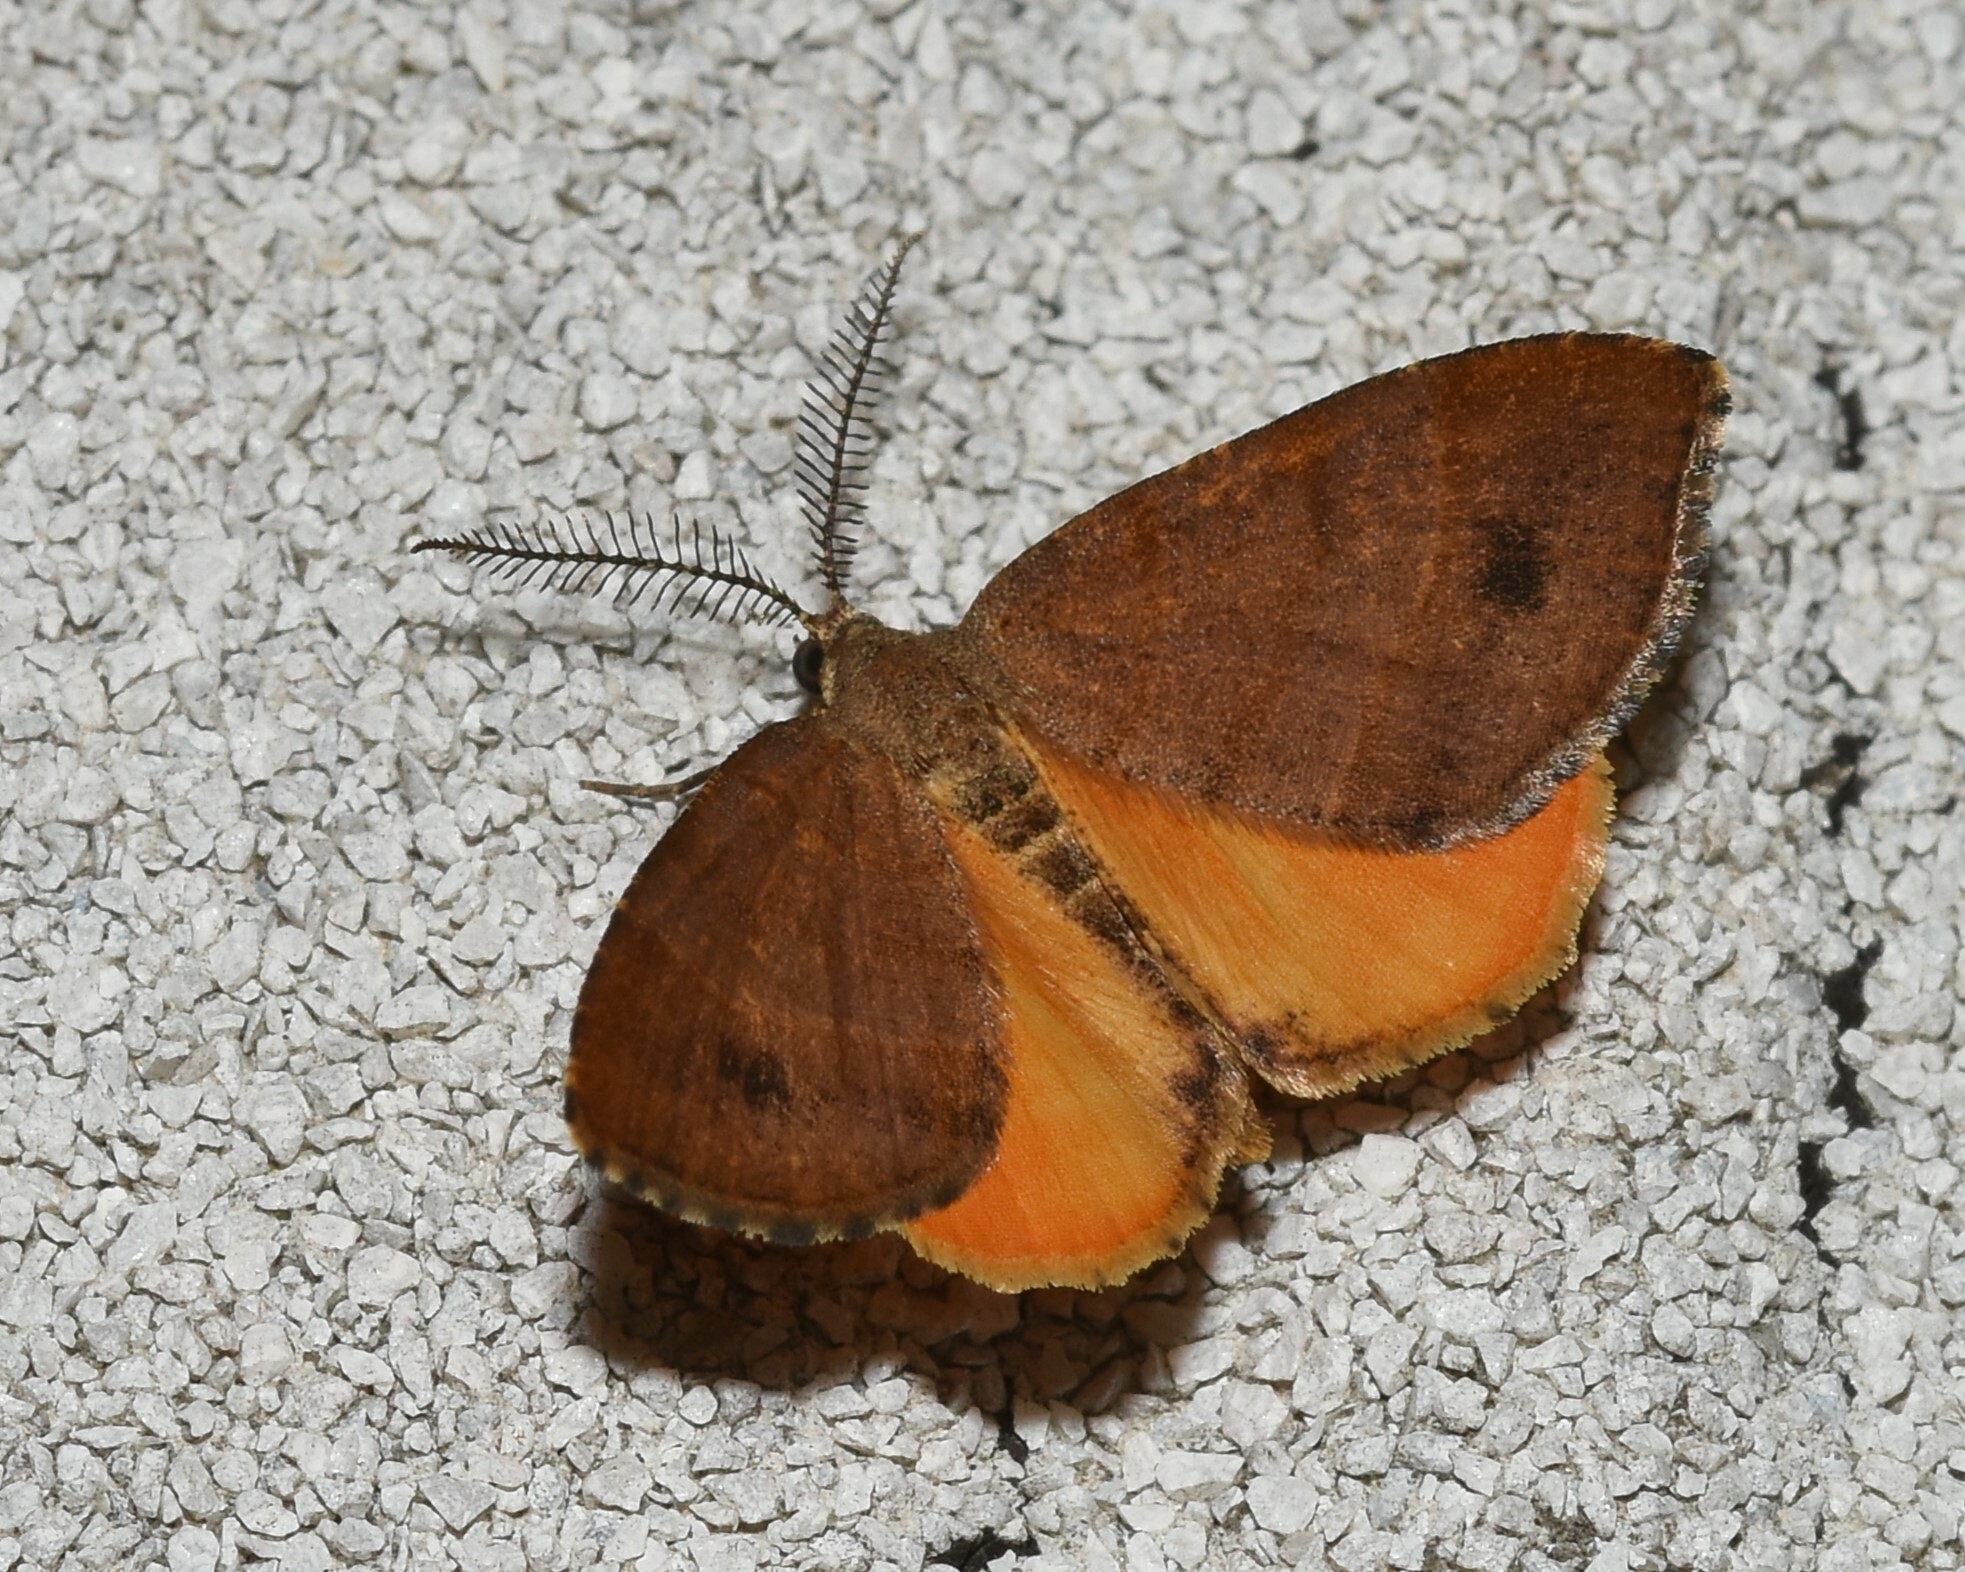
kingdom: Animalia
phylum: Arthropoda
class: Insecta
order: Lepidoptera
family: Geometridae
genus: Mellilla
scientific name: Mellilla xanthometata
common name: Orange wing moth
